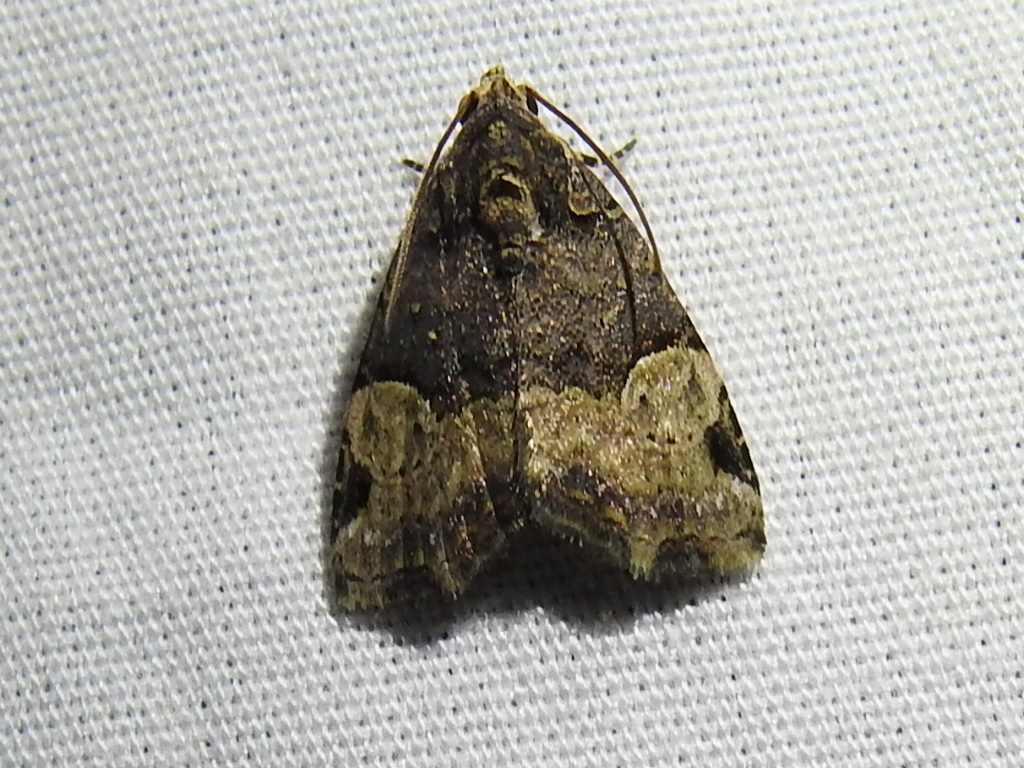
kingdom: Animalia
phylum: Arthropoda
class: Insecta
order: Lepidoptera
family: Noctuidae
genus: Ozarba
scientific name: Ozarba catilina
